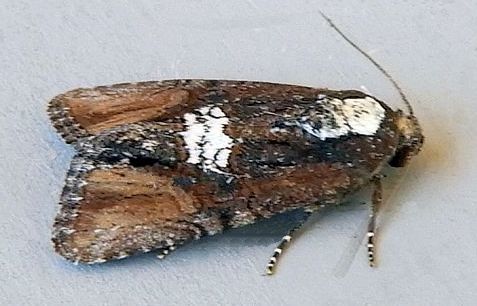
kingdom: Animalia
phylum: Arthropoda
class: Insecta
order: Lepidoptera
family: Noctuidae
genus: Bryolymnia
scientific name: Bryolymnia semifascia
